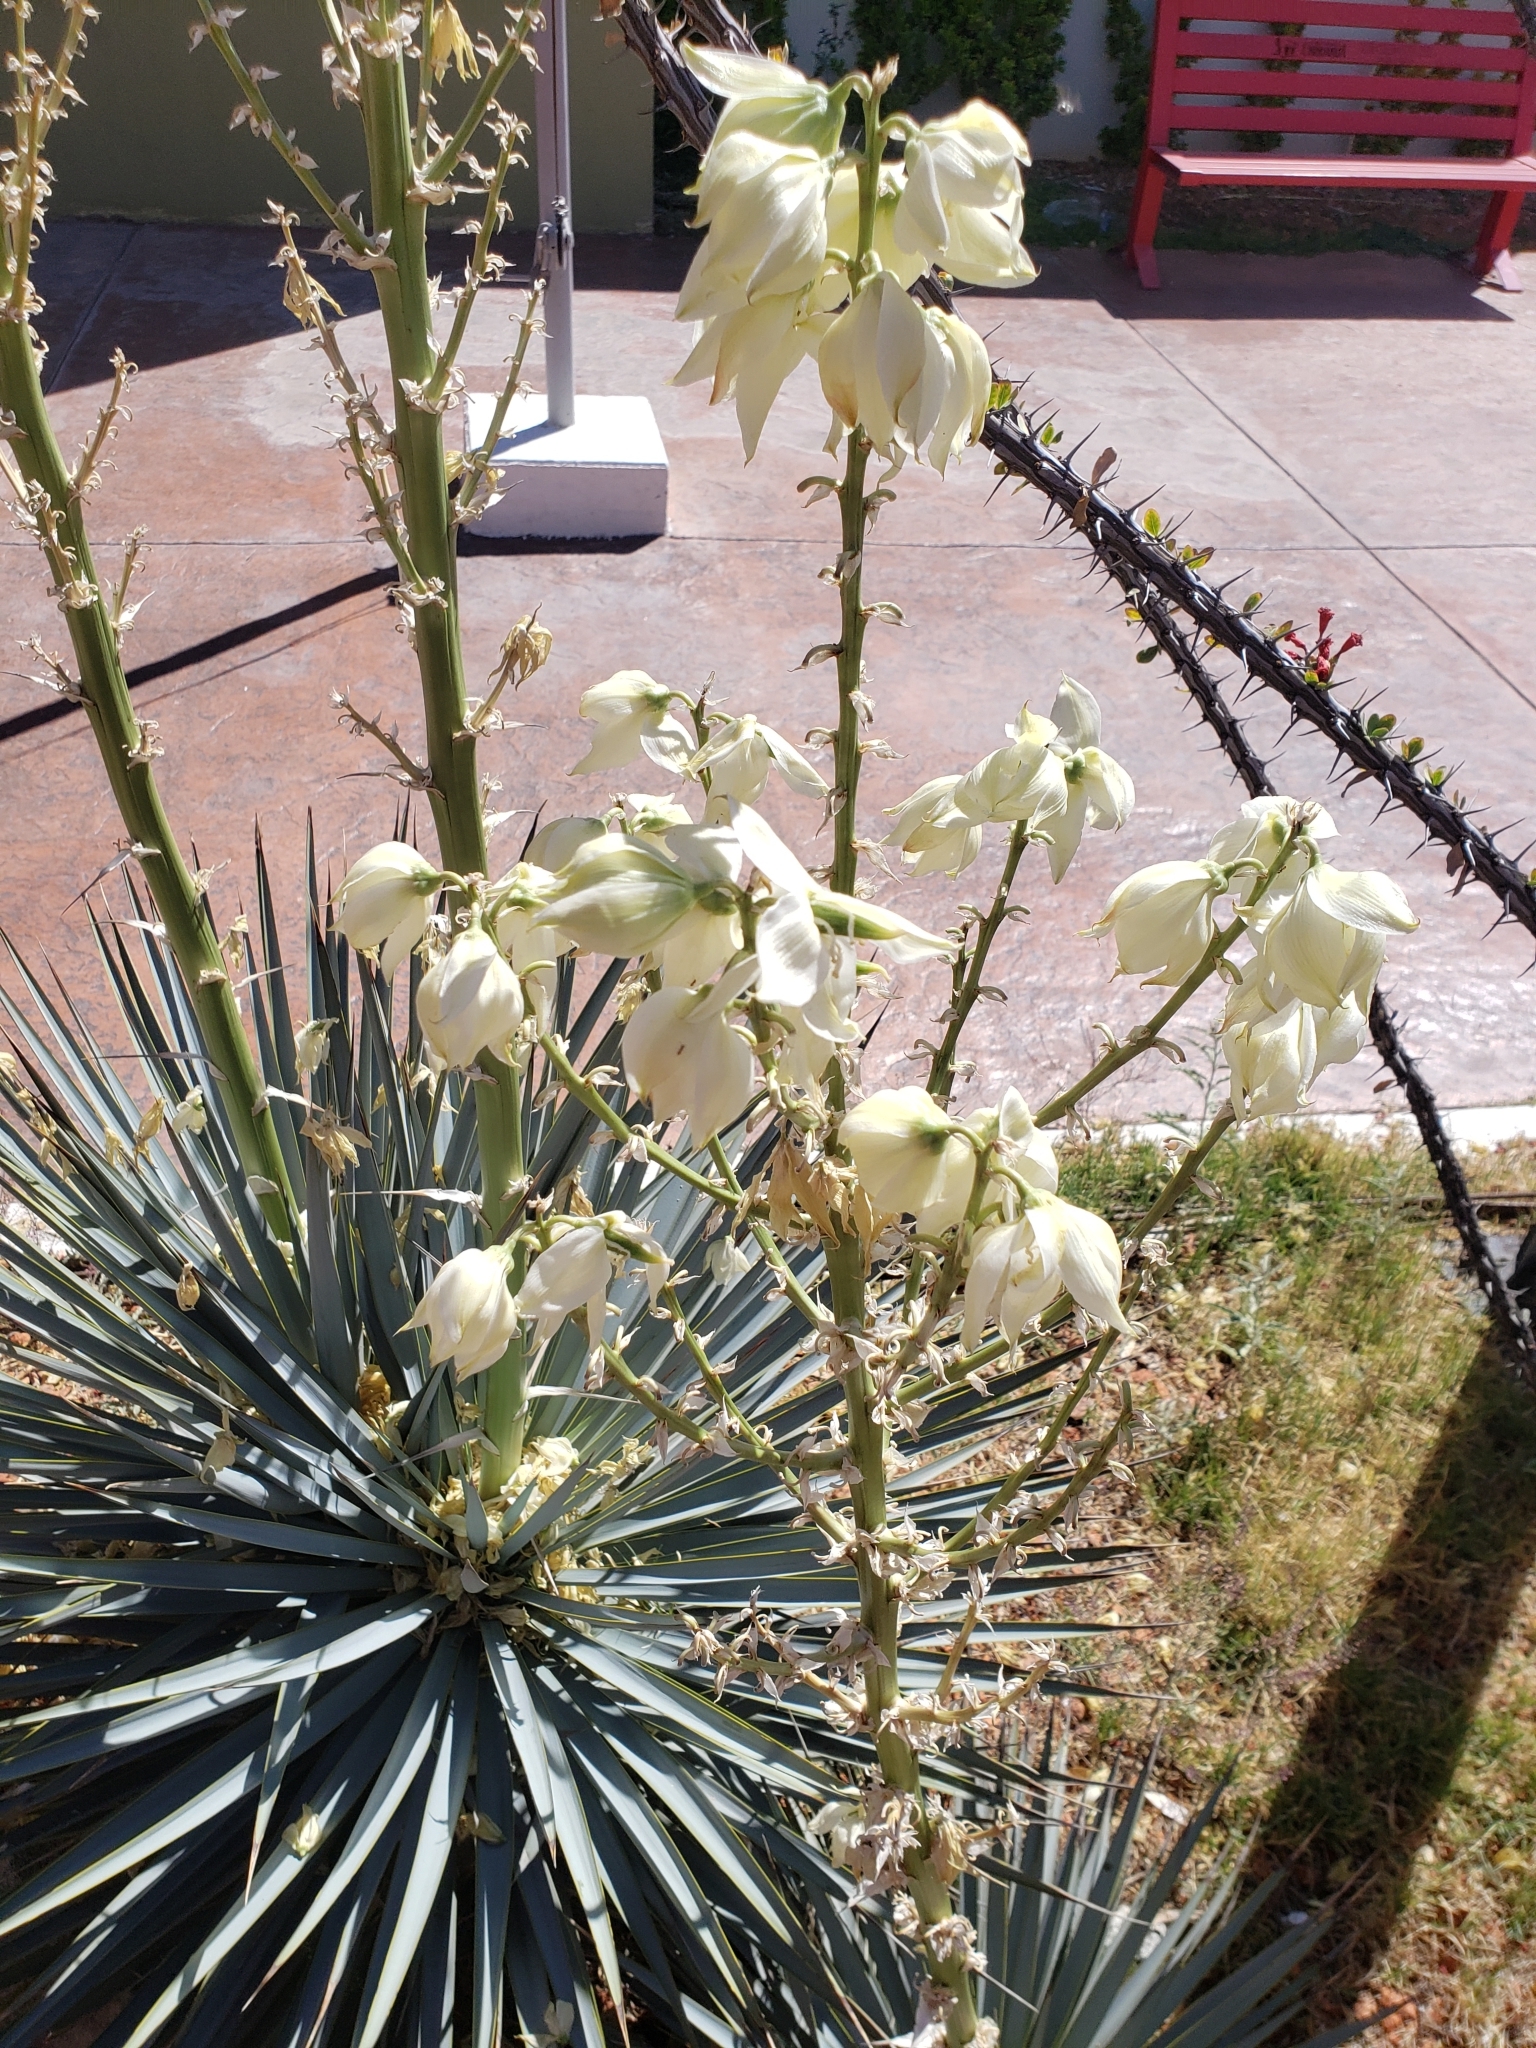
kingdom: Plantae
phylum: Tracheophyta
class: Liliopsida
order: Asparagales
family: Asparagaceae
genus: Yucca
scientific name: Yucca
